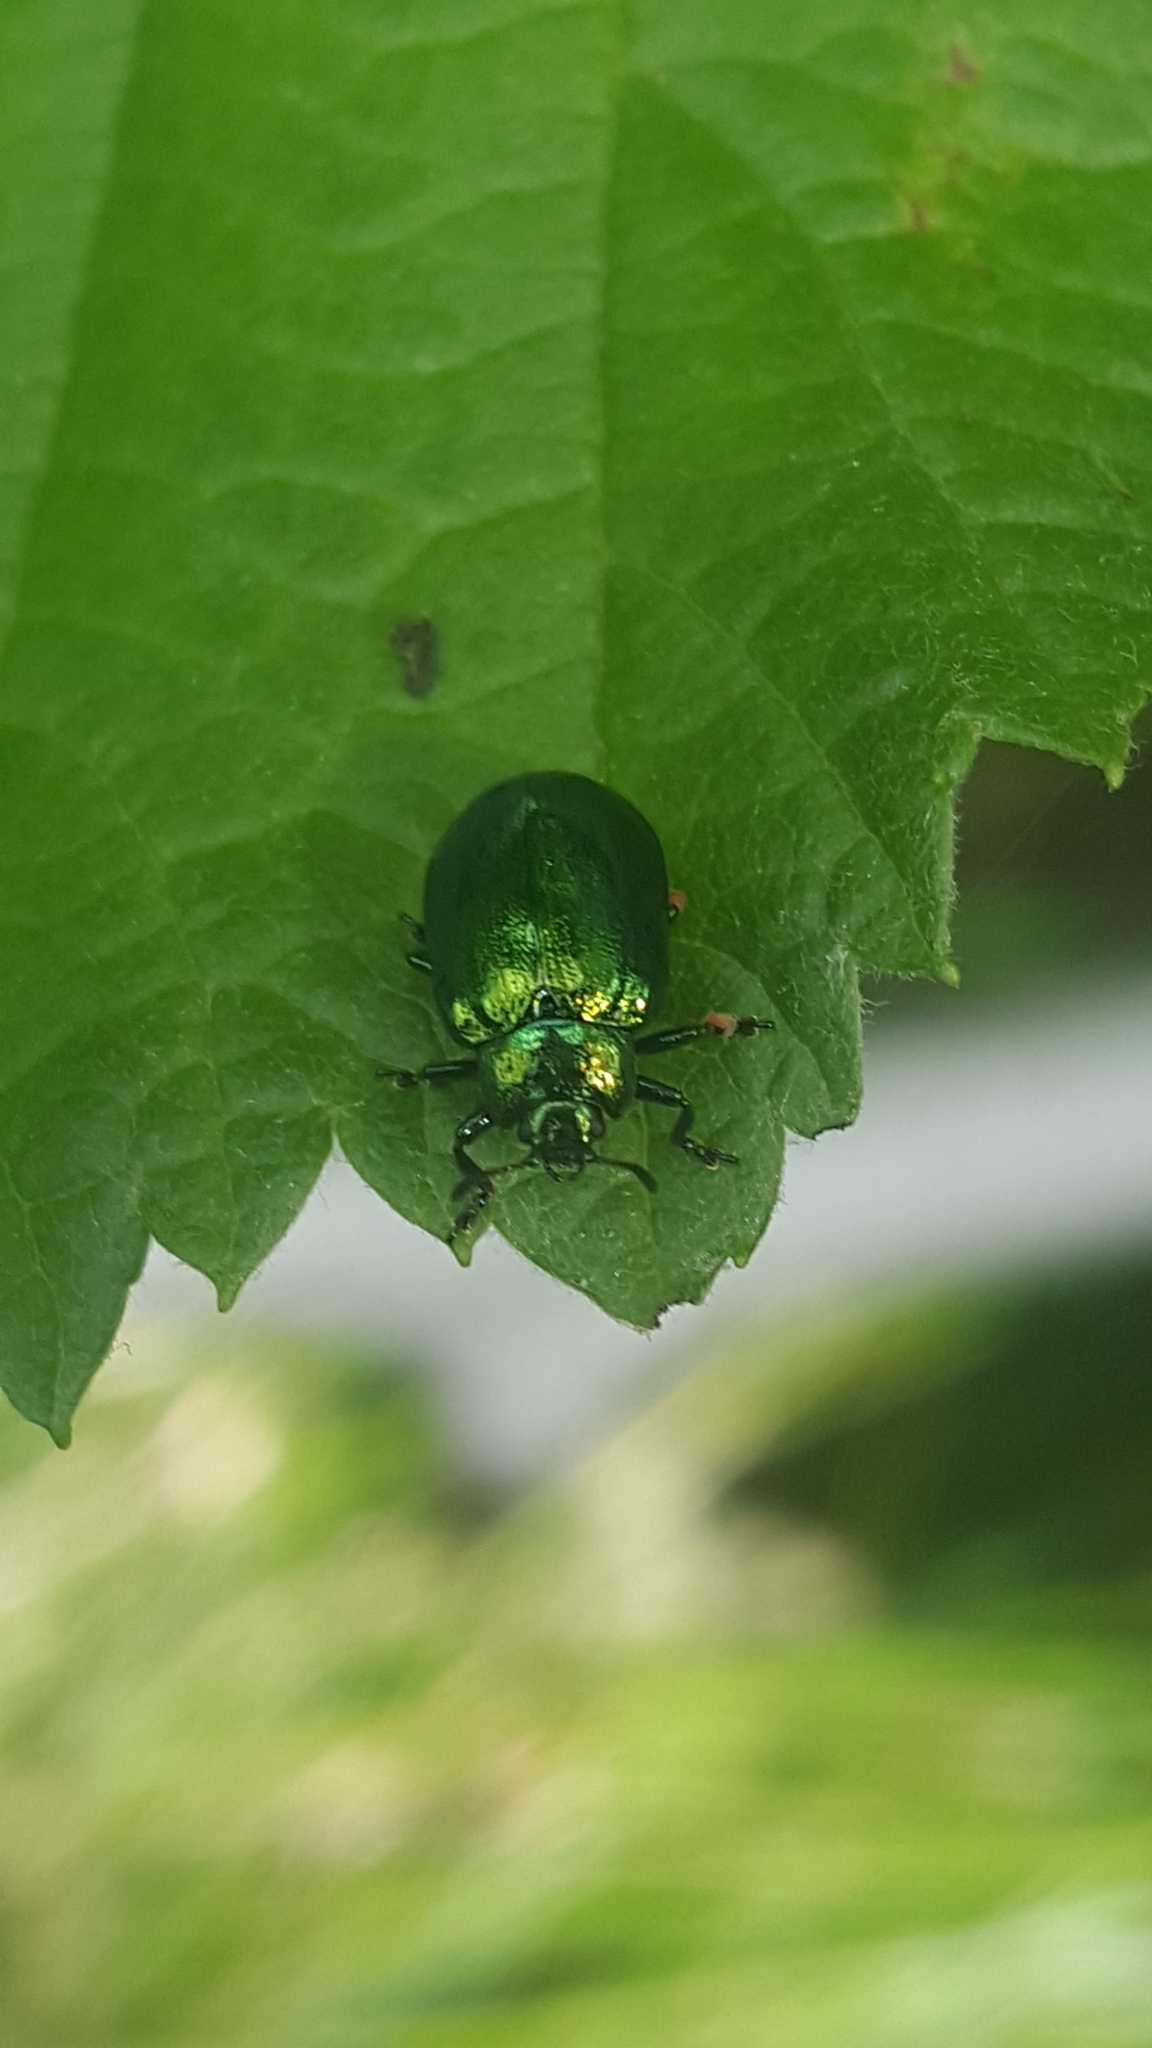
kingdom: Animalia
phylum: Arthropoda
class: Insecta
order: Coleoptera
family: Chrysomelidae
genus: Plagiosterna
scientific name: Plagiosterna aenea
